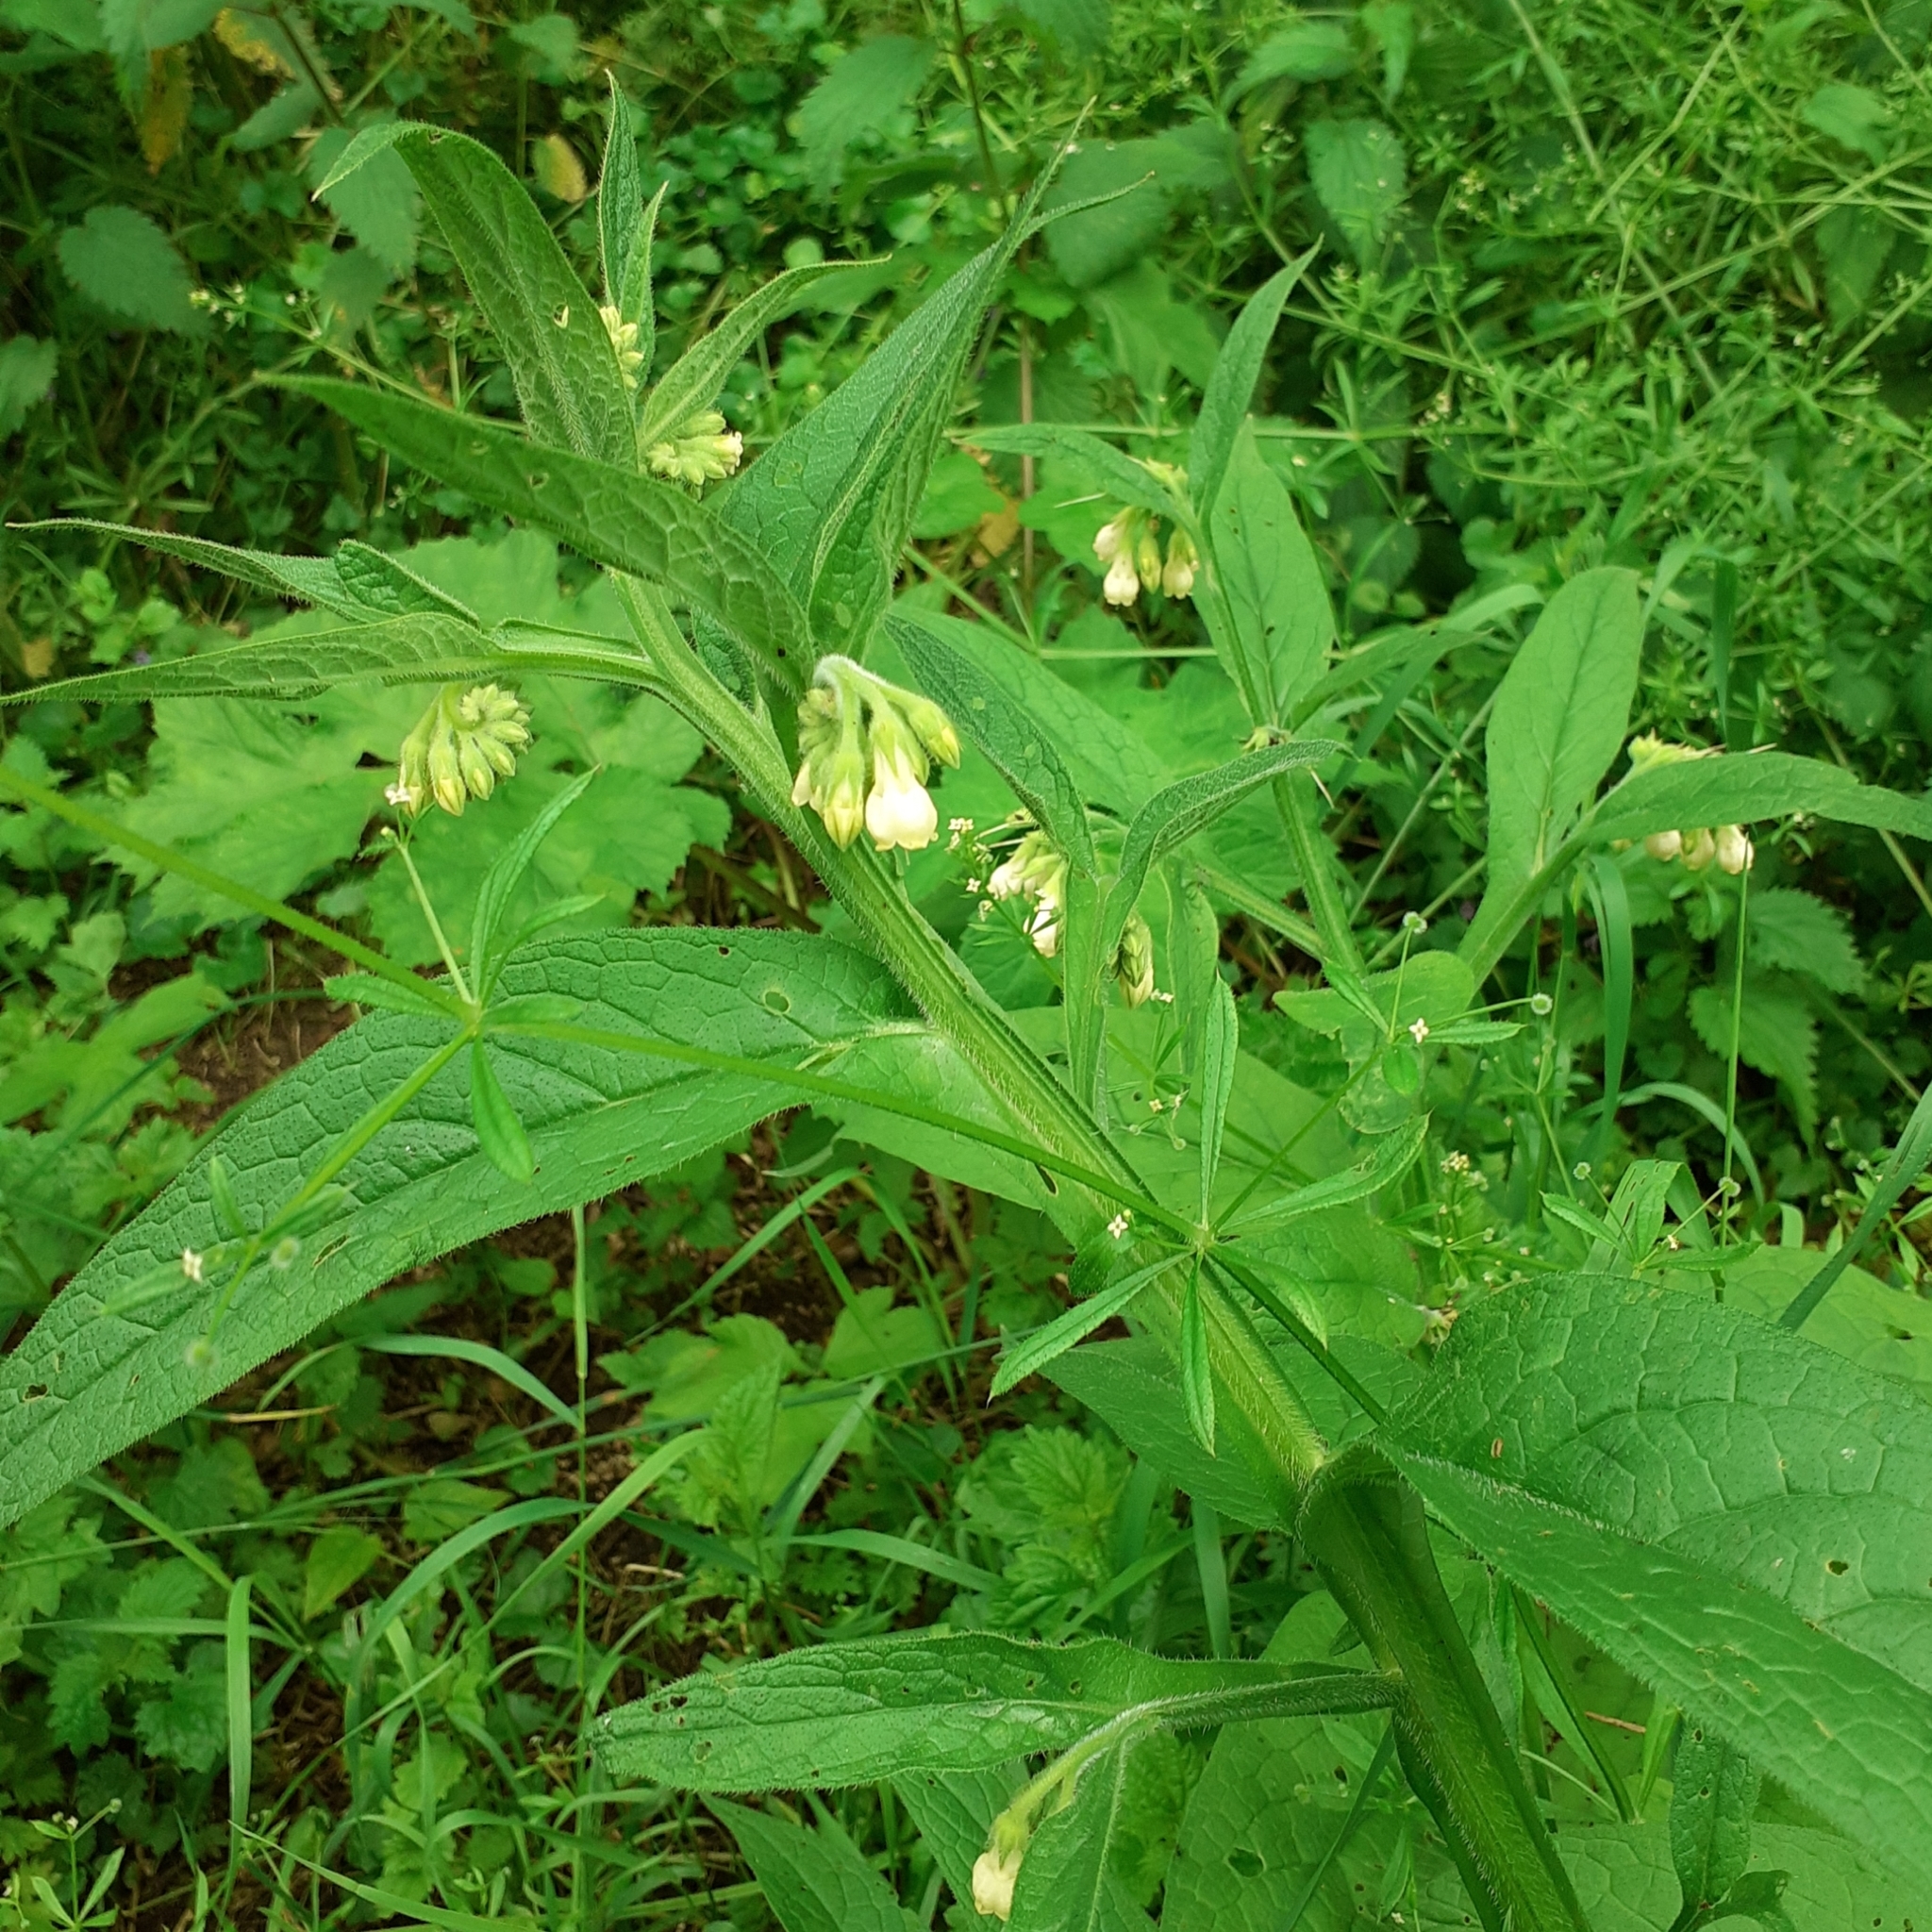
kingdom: Plantae
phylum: Tracheophyta
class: Magnoliopsida
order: Boraginales
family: Boraginaceae
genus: Symphytum
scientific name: Symphytum officinale
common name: Common comfrey
